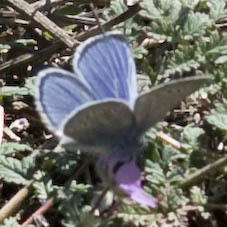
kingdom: Animalia
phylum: Arthropoda
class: Insecta
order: Lepidoptera
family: Lycaenidae
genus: Glaucopsyche
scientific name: Glaucopsyche lygdamus
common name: Silvery blue
